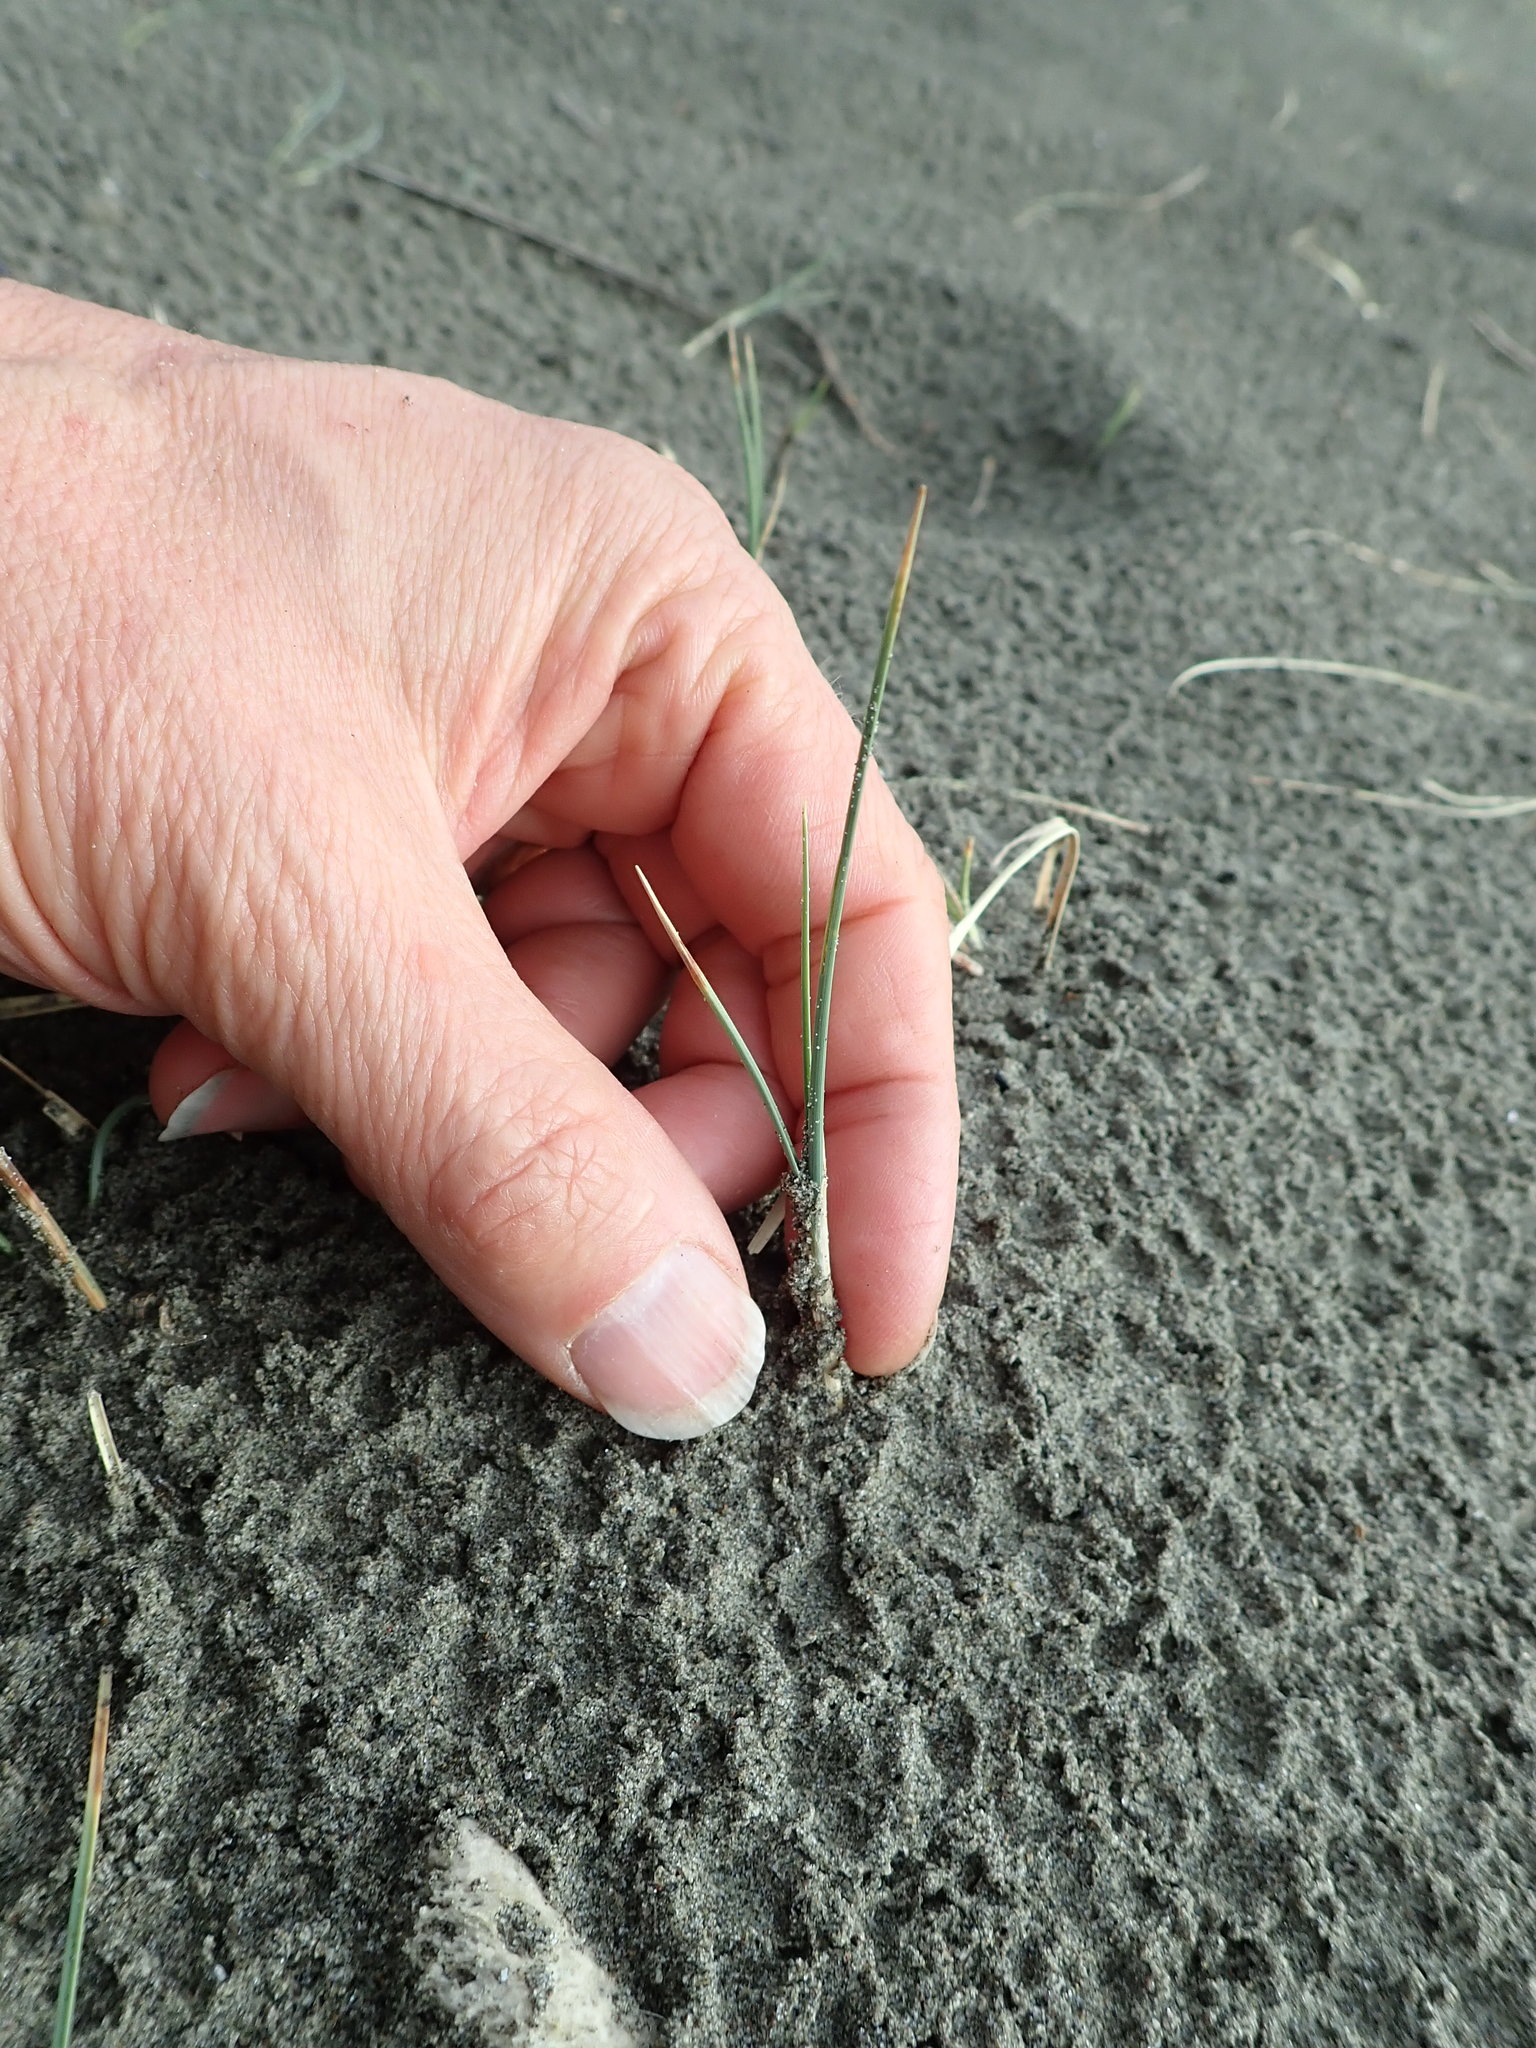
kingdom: Plantae
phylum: Tracheophyta
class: Liliopsida
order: Poales
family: Cyperaceae
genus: Carex
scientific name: Carex pumila
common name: Dwarf sedge
